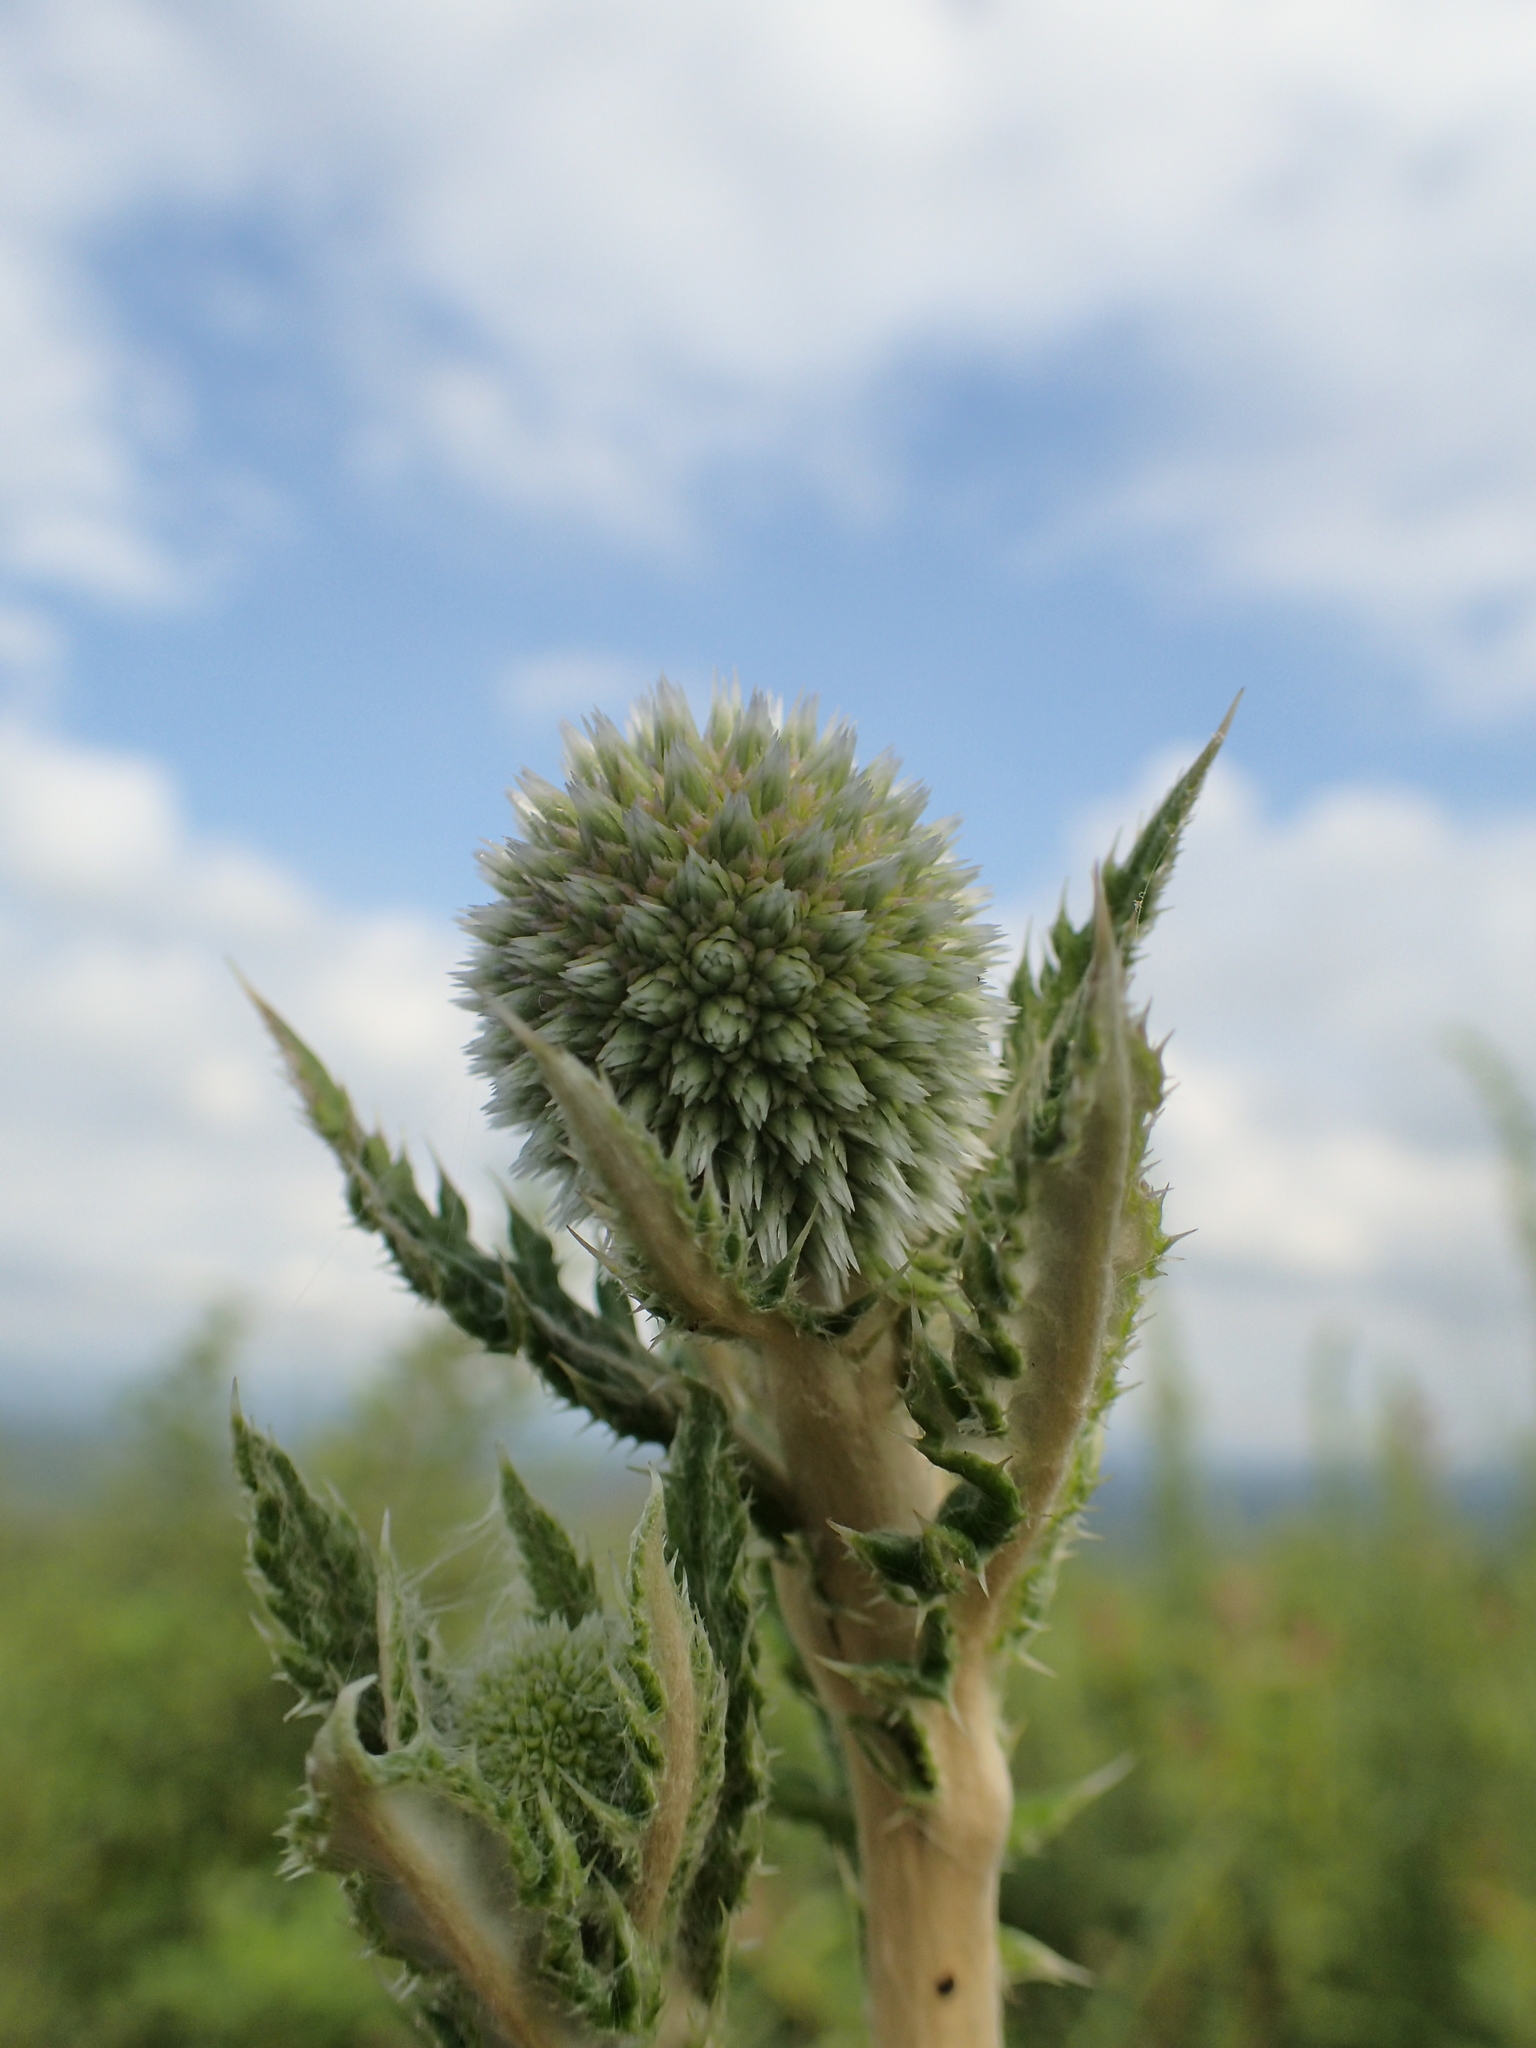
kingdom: Plantae
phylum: Tracheophyta
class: Magnoliopsida
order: Asterales
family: Asteraceae
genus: Echinops
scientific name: Echinops grijsii
